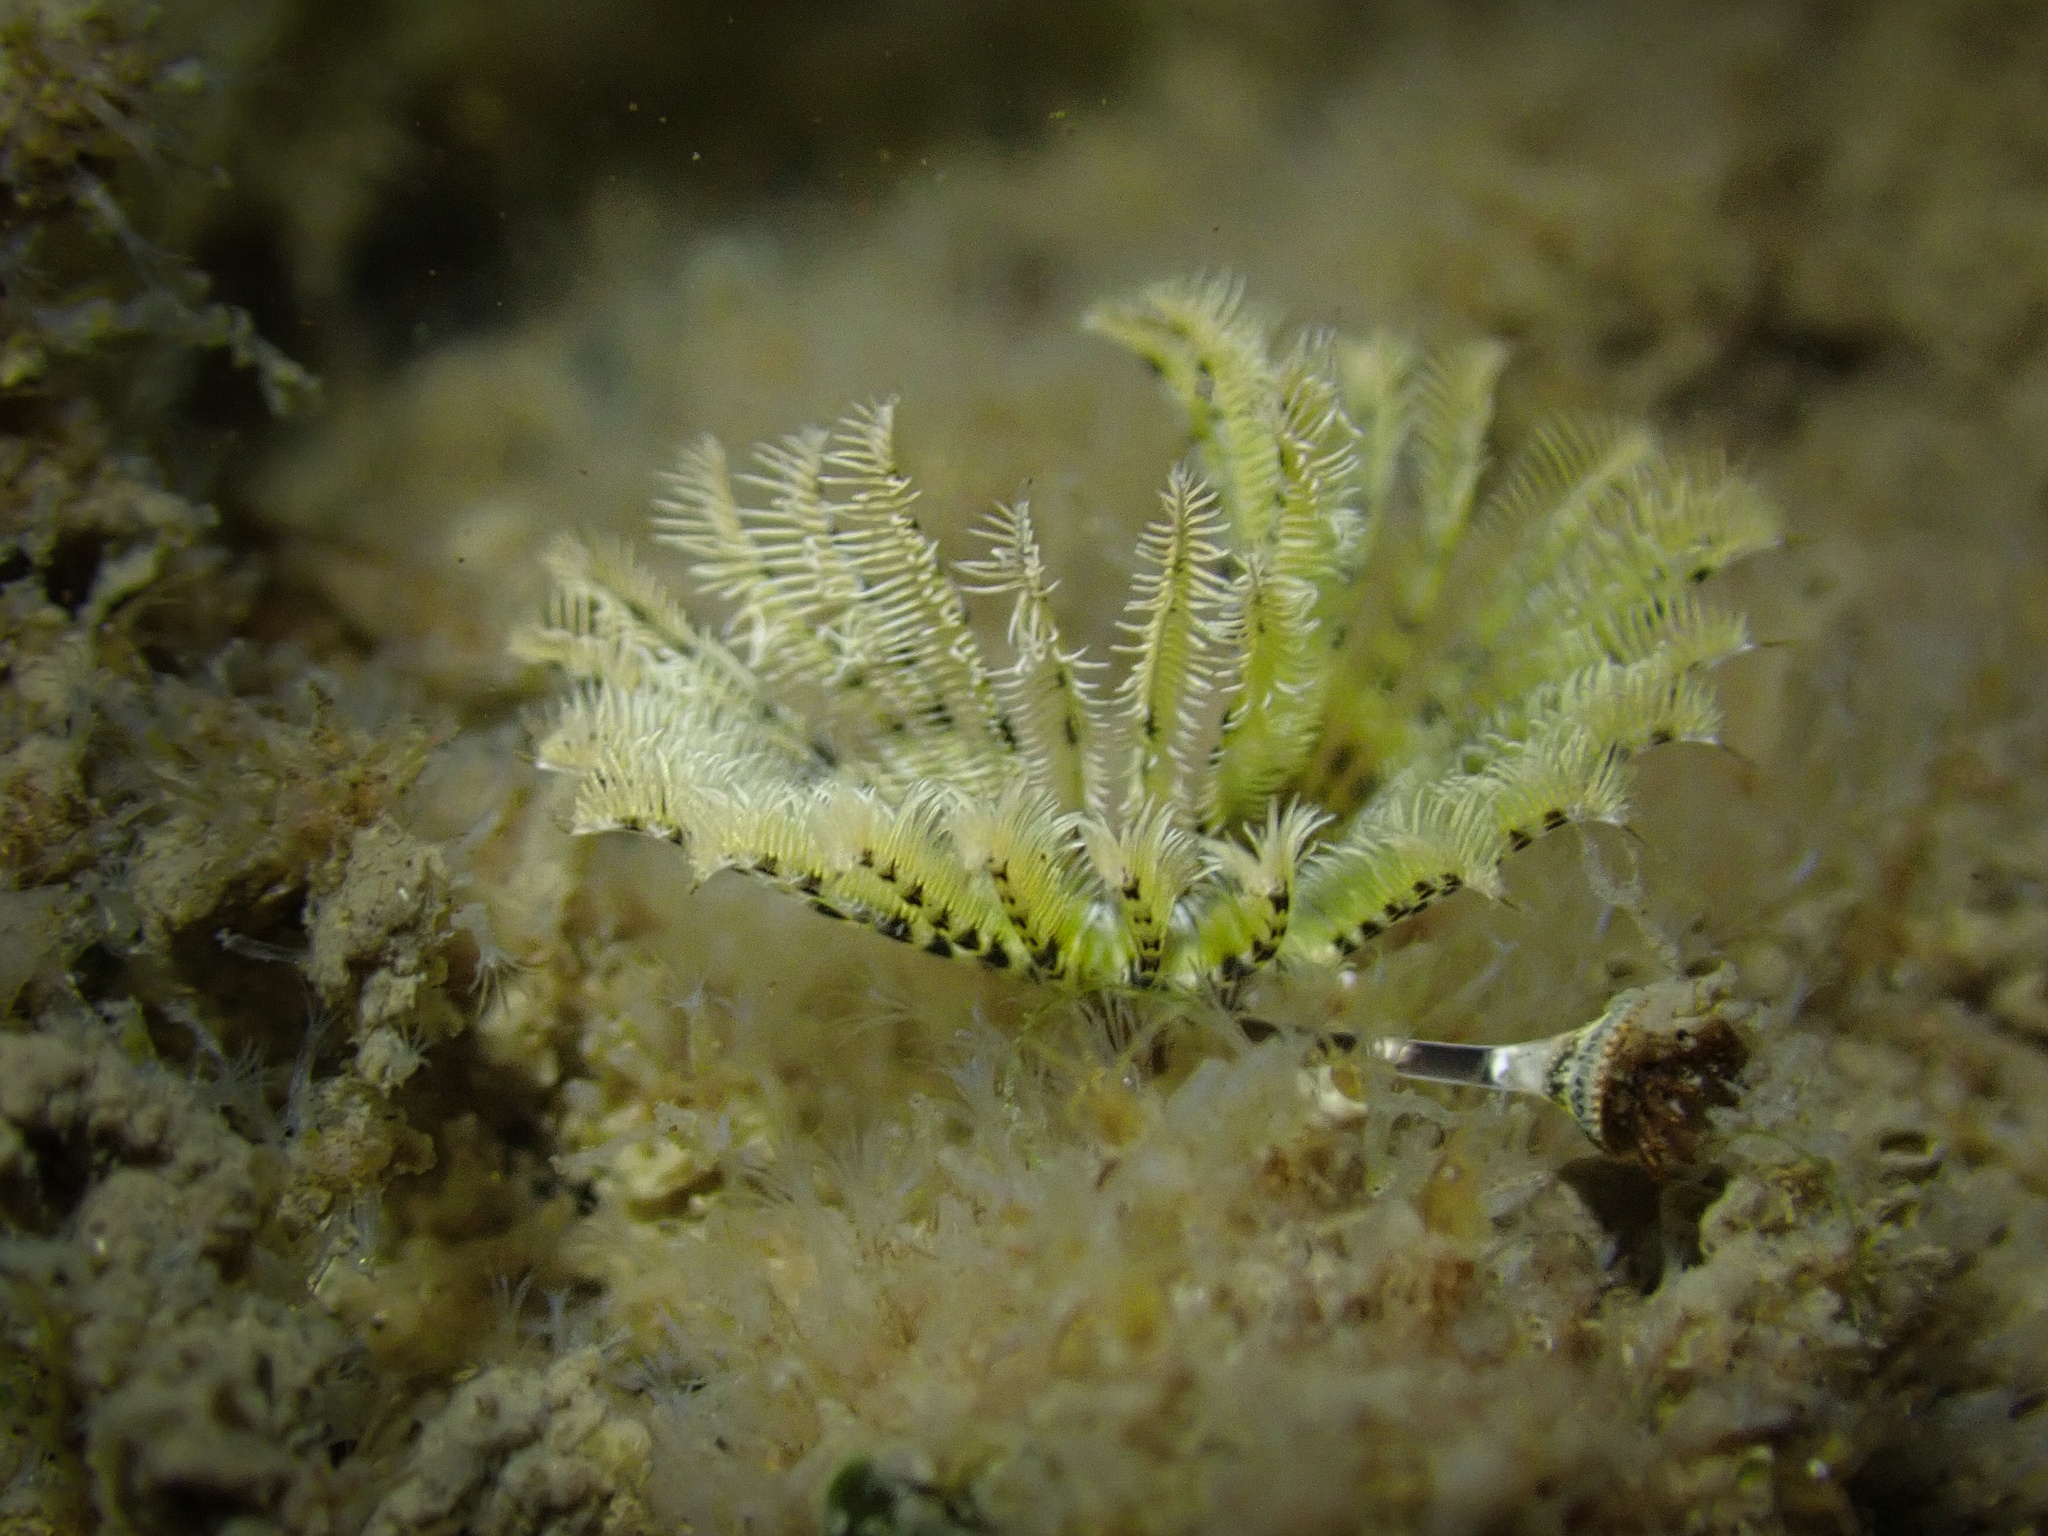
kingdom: Animalia
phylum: Annelida
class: Polychaeta
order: Sabellida
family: Serpulidae
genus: Hydroides
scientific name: Hydroides gracilis
